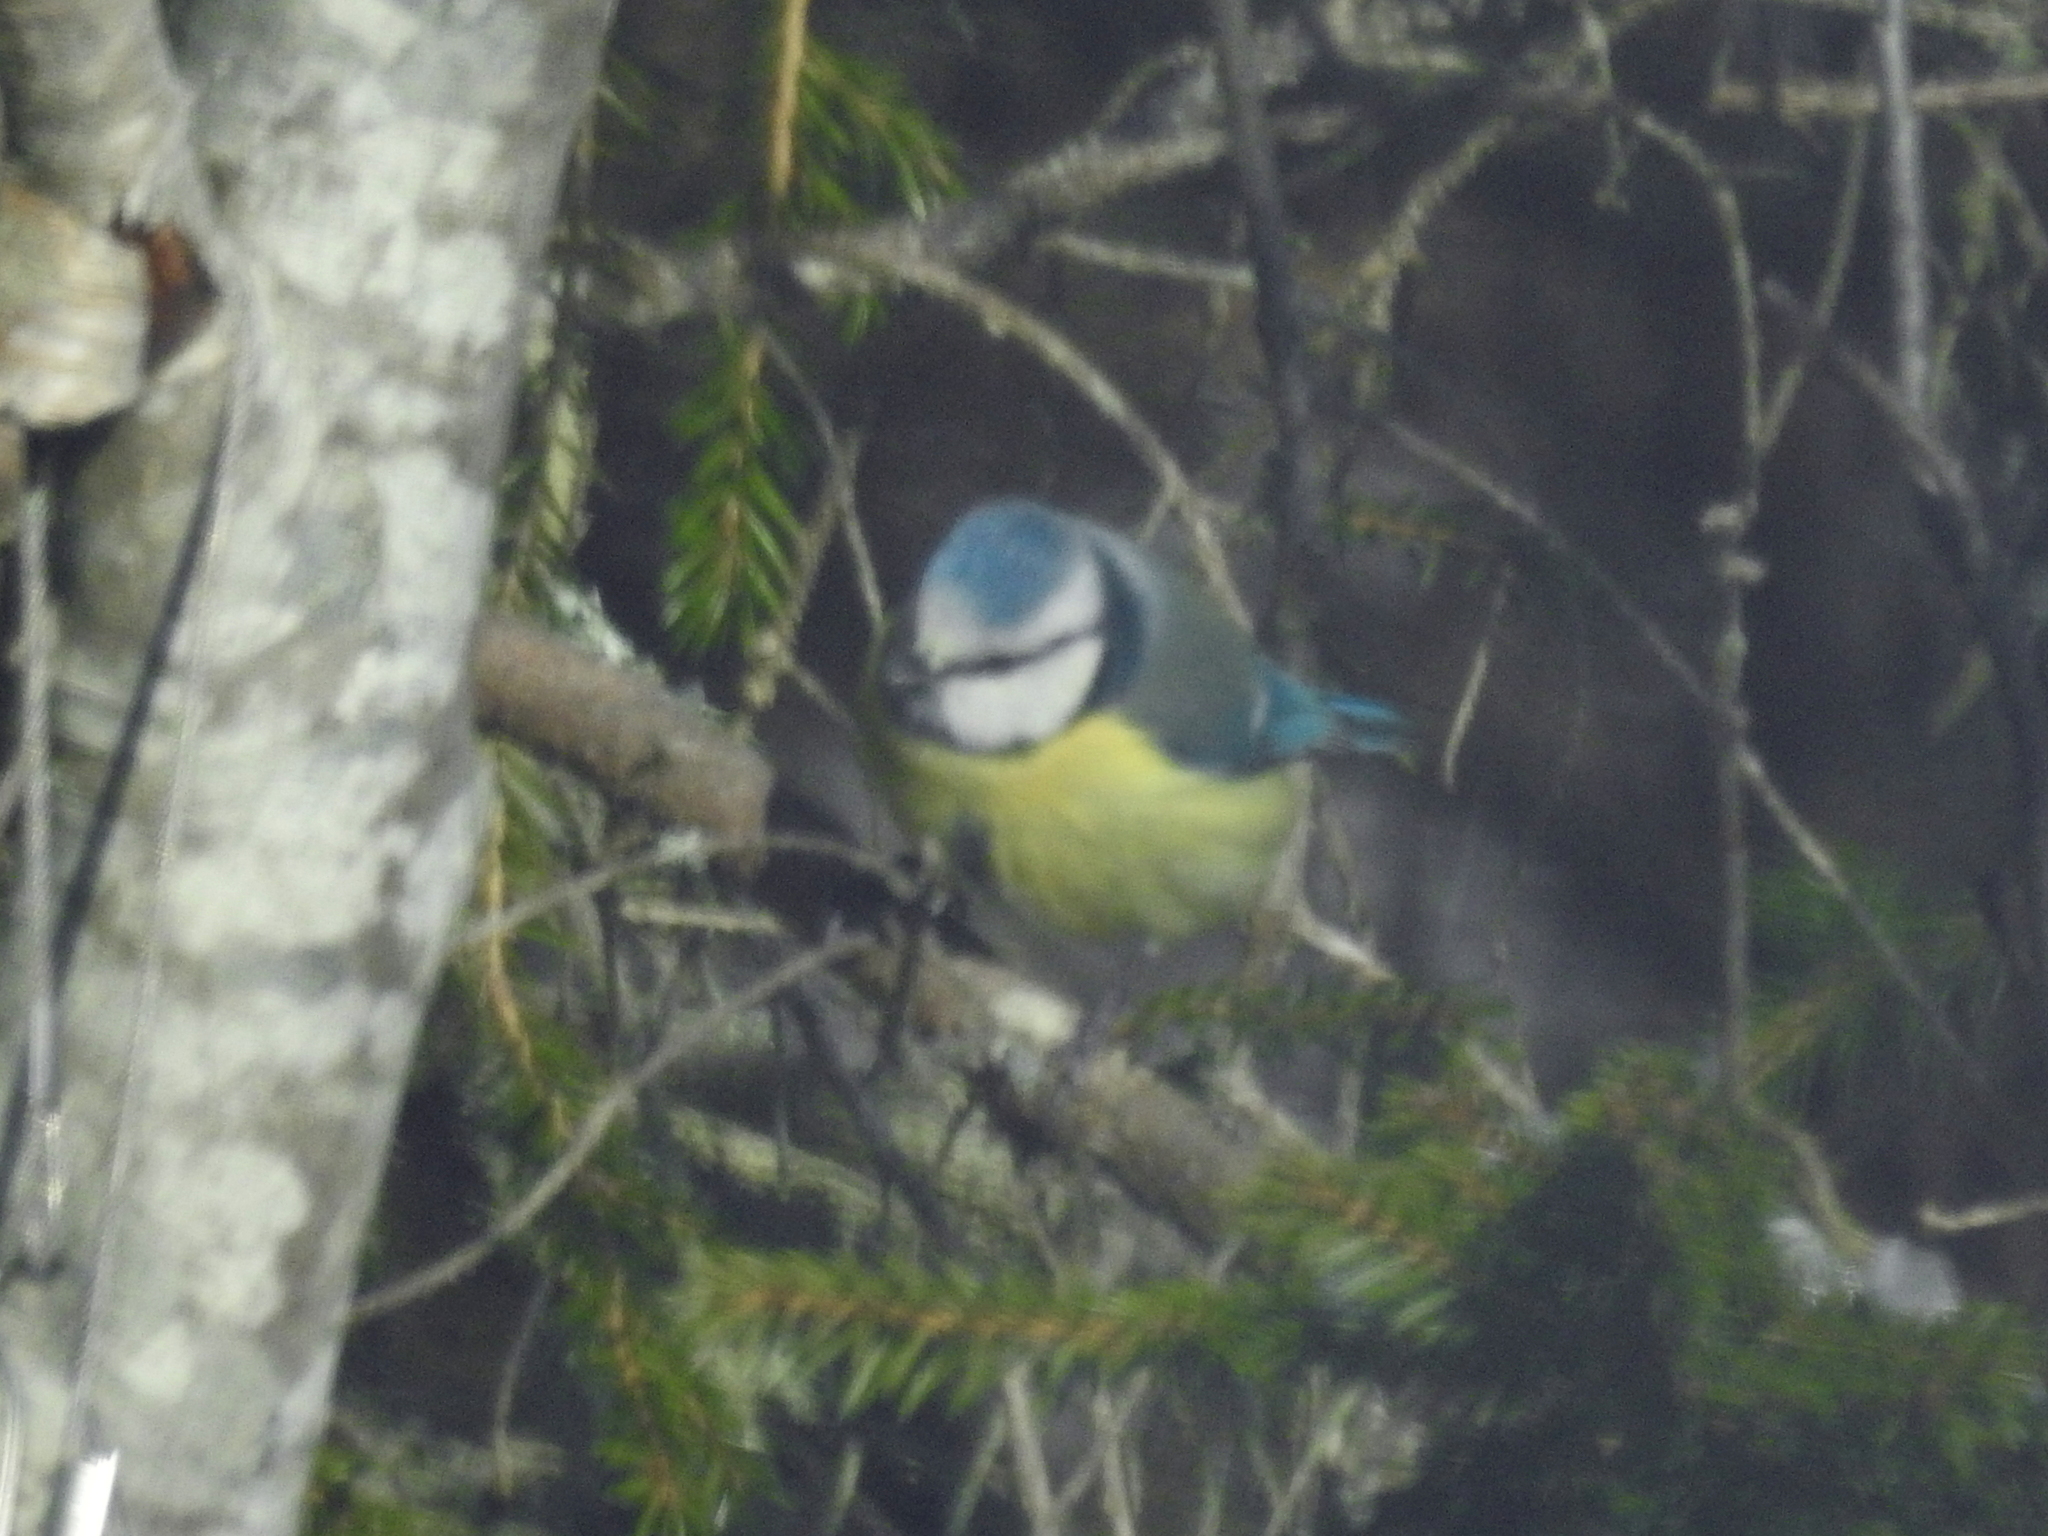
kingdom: Animalia
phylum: Chordata
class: Aves
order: Passeriformes
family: Paridae
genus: Cyanistes
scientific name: Cyanistes caeruleus
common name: Eurasian blue tit
